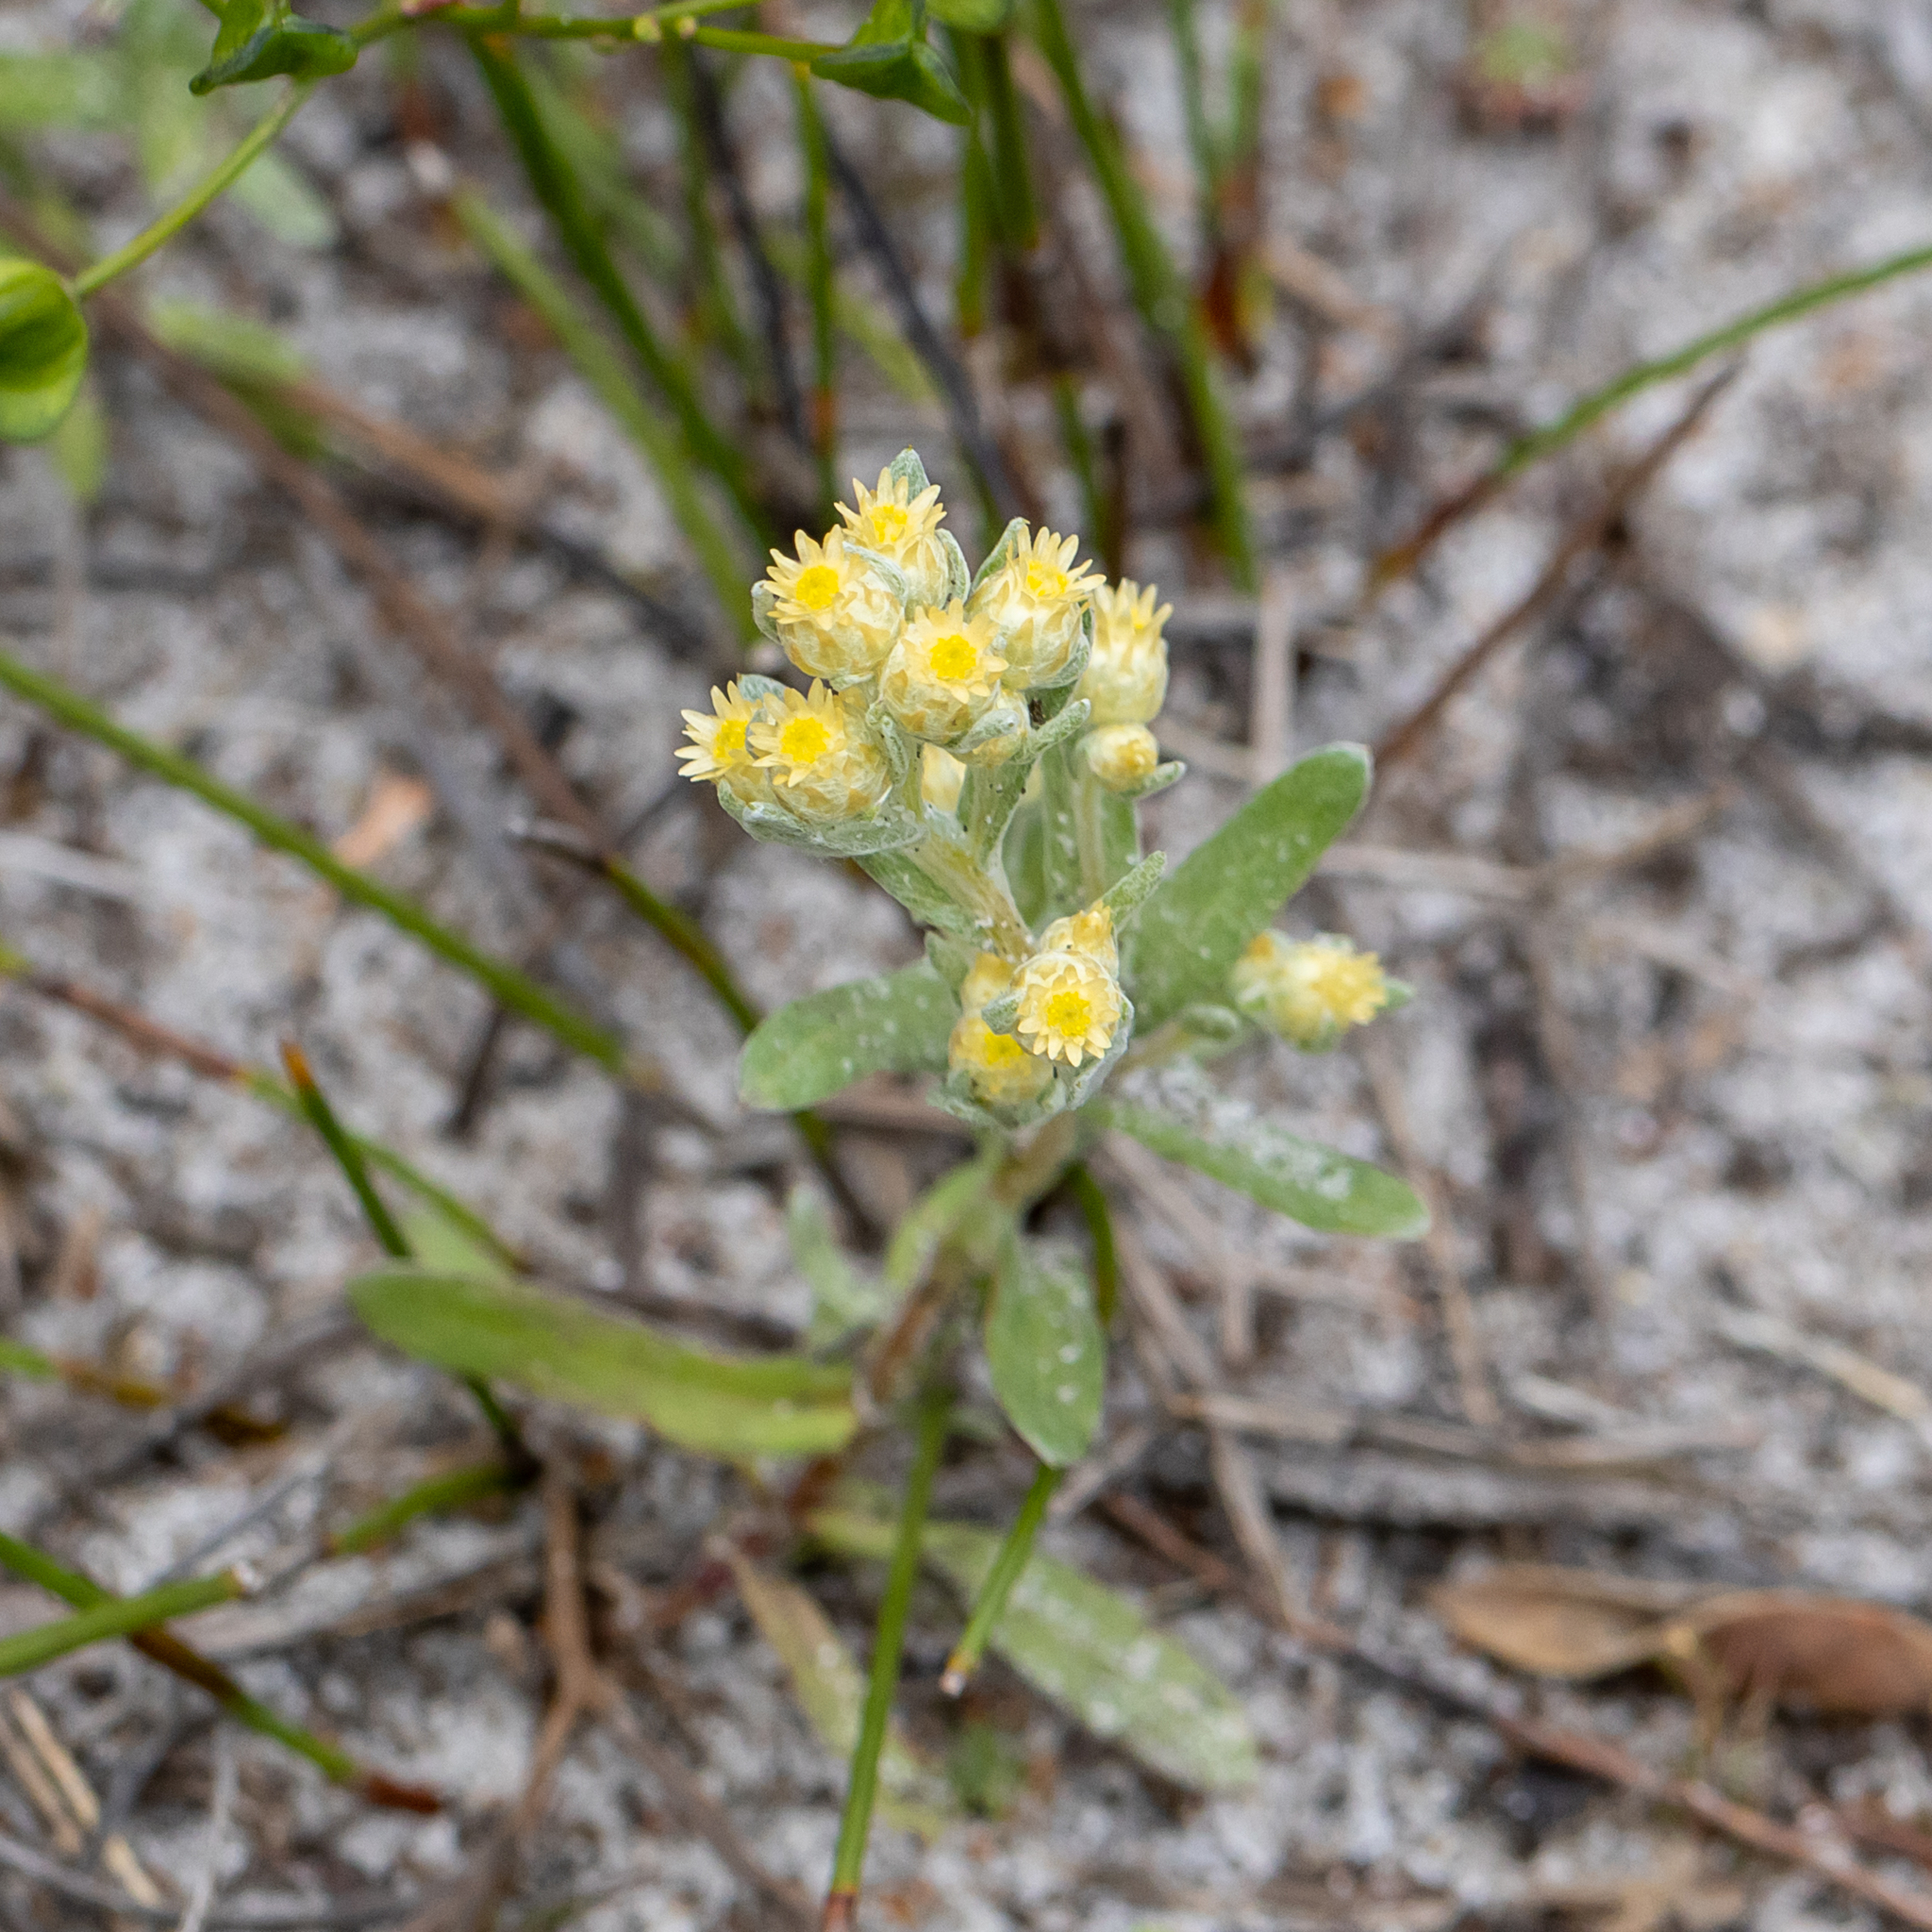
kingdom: Plantae
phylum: Tracheophyta
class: Magnoliopsida
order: Asterales
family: Asteraceae
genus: Pterochaeta
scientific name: Pterochaeta paniculata
